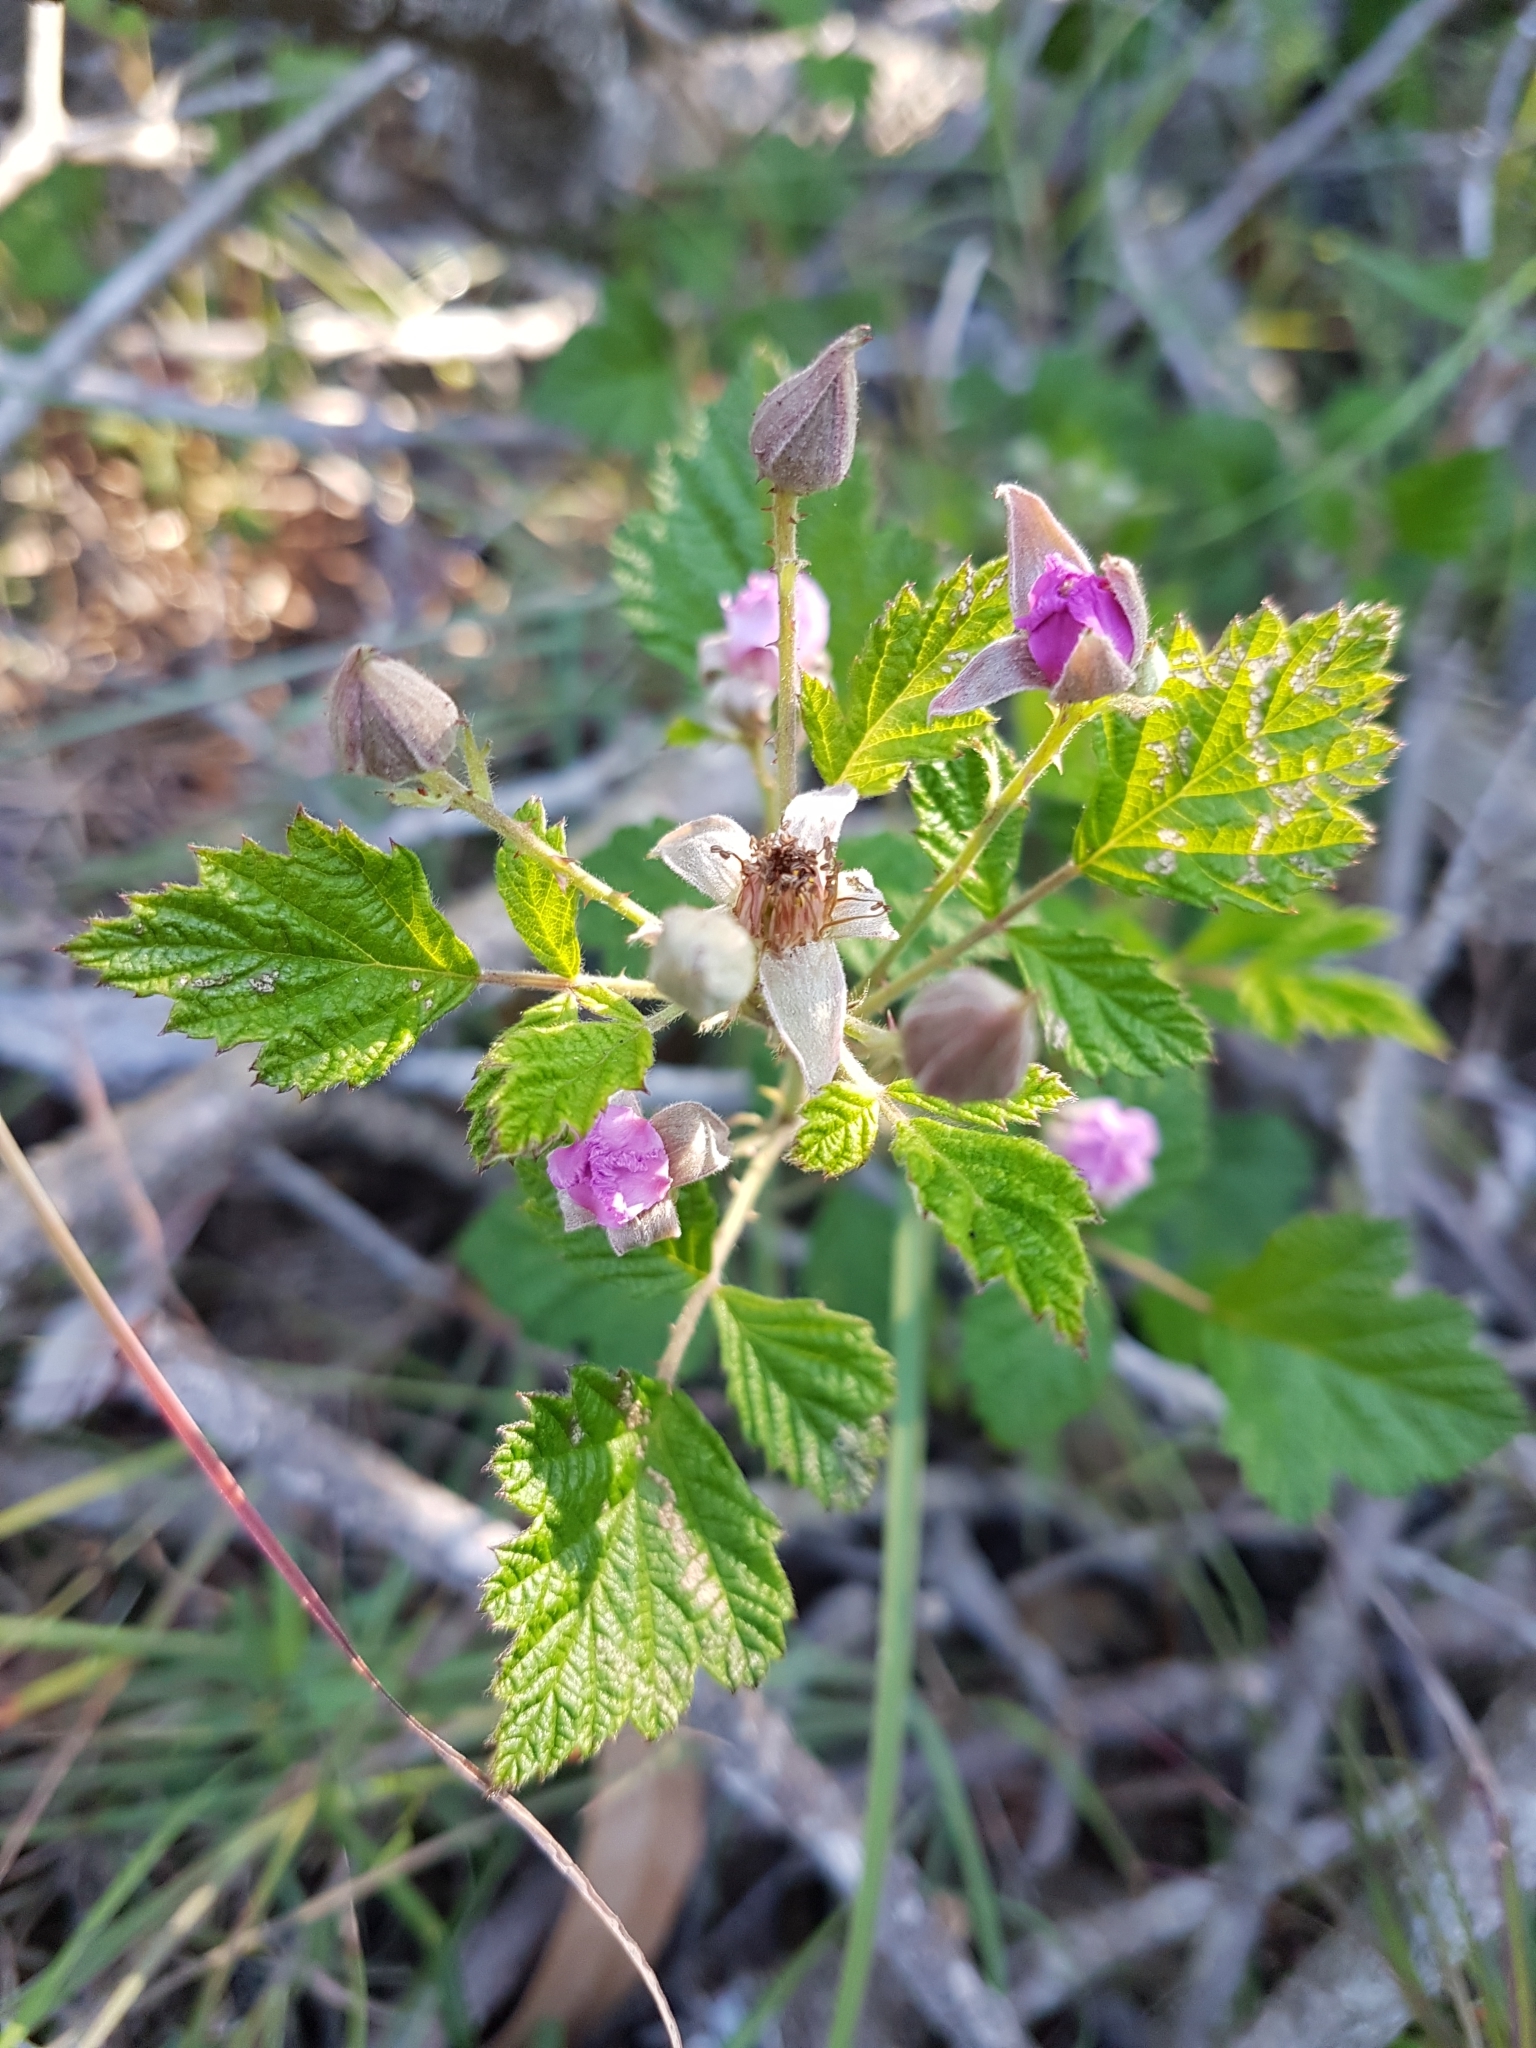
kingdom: Plantae
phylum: Tracheophyta
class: Magnoliopsida
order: Rosales
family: Rosaceae
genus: Rubus
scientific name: Rubus parvifolius
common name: Threeleaf blackberry
